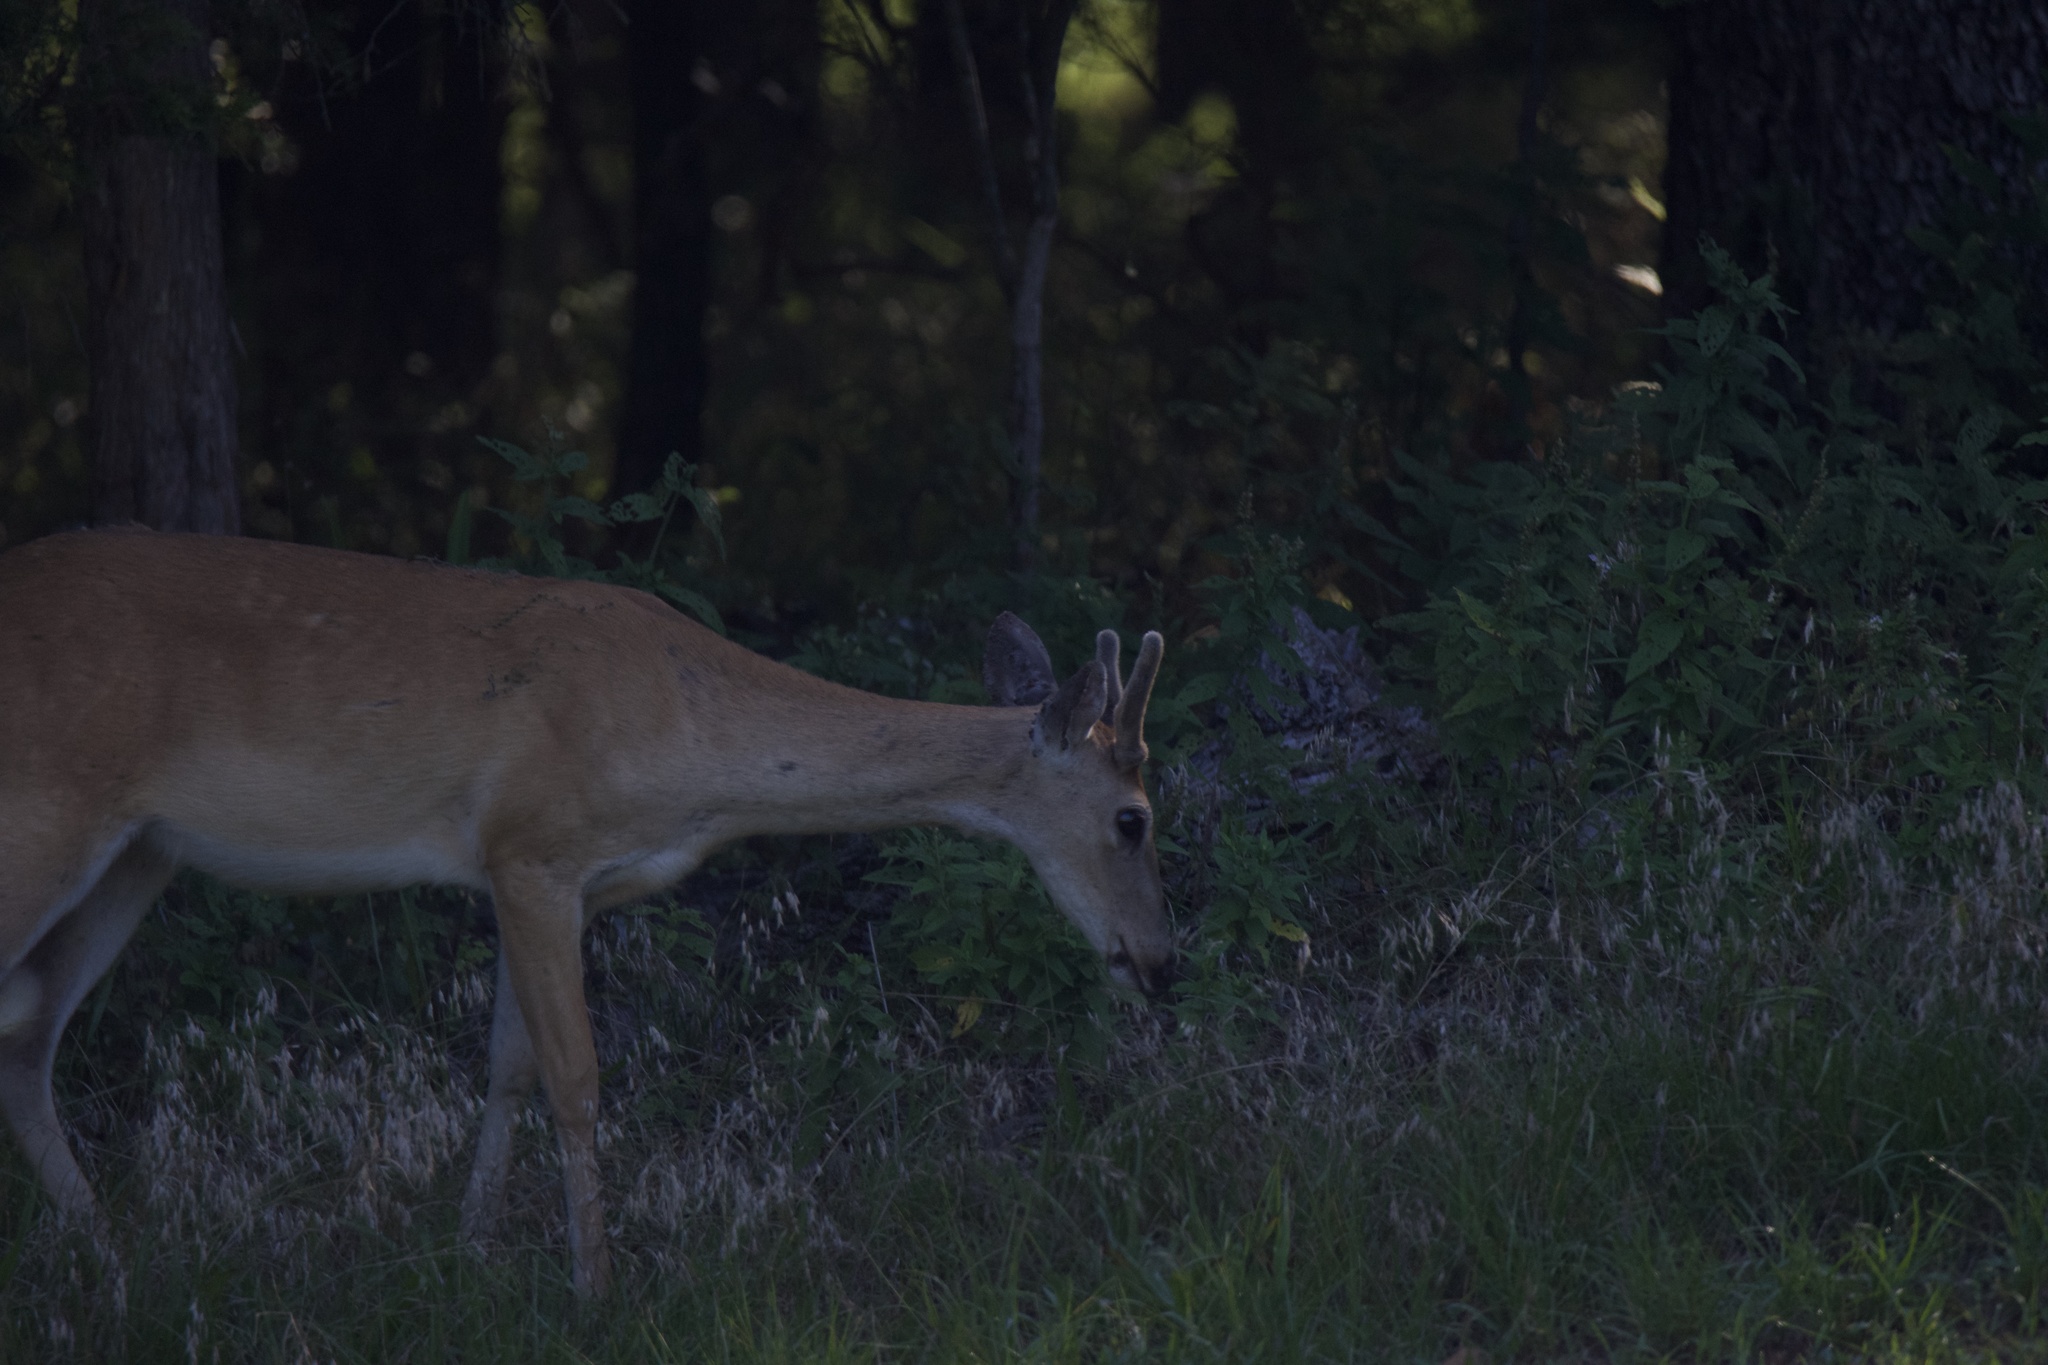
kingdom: Animalia
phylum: Chordata
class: Mammalia
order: Artiodactyla
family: Cervidae
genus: Odocoileus
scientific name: Odocoileus virginianus
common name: White-tailed deer
